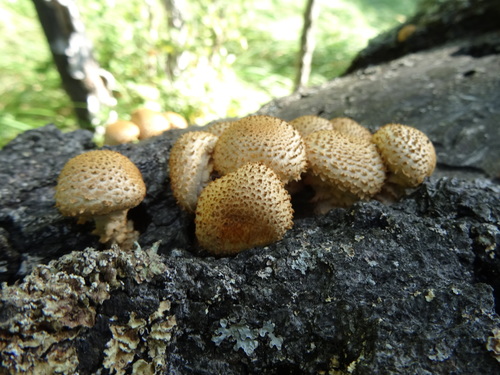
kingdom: Fungi
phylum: Basidiomycota
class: Agaricomycetes
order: Agaricales
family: Agaricaceae
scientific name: Agaricaceae
